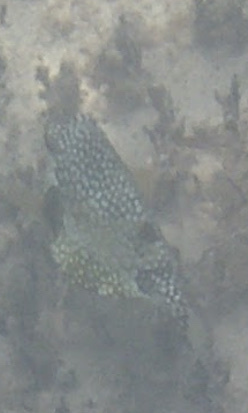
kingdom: Animalia
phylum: Chordata
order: Tetraodontiformes
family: Ostraciidae
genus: Lactophrys
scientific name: Lactophrys triqueter
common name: Smooth trunkfish
